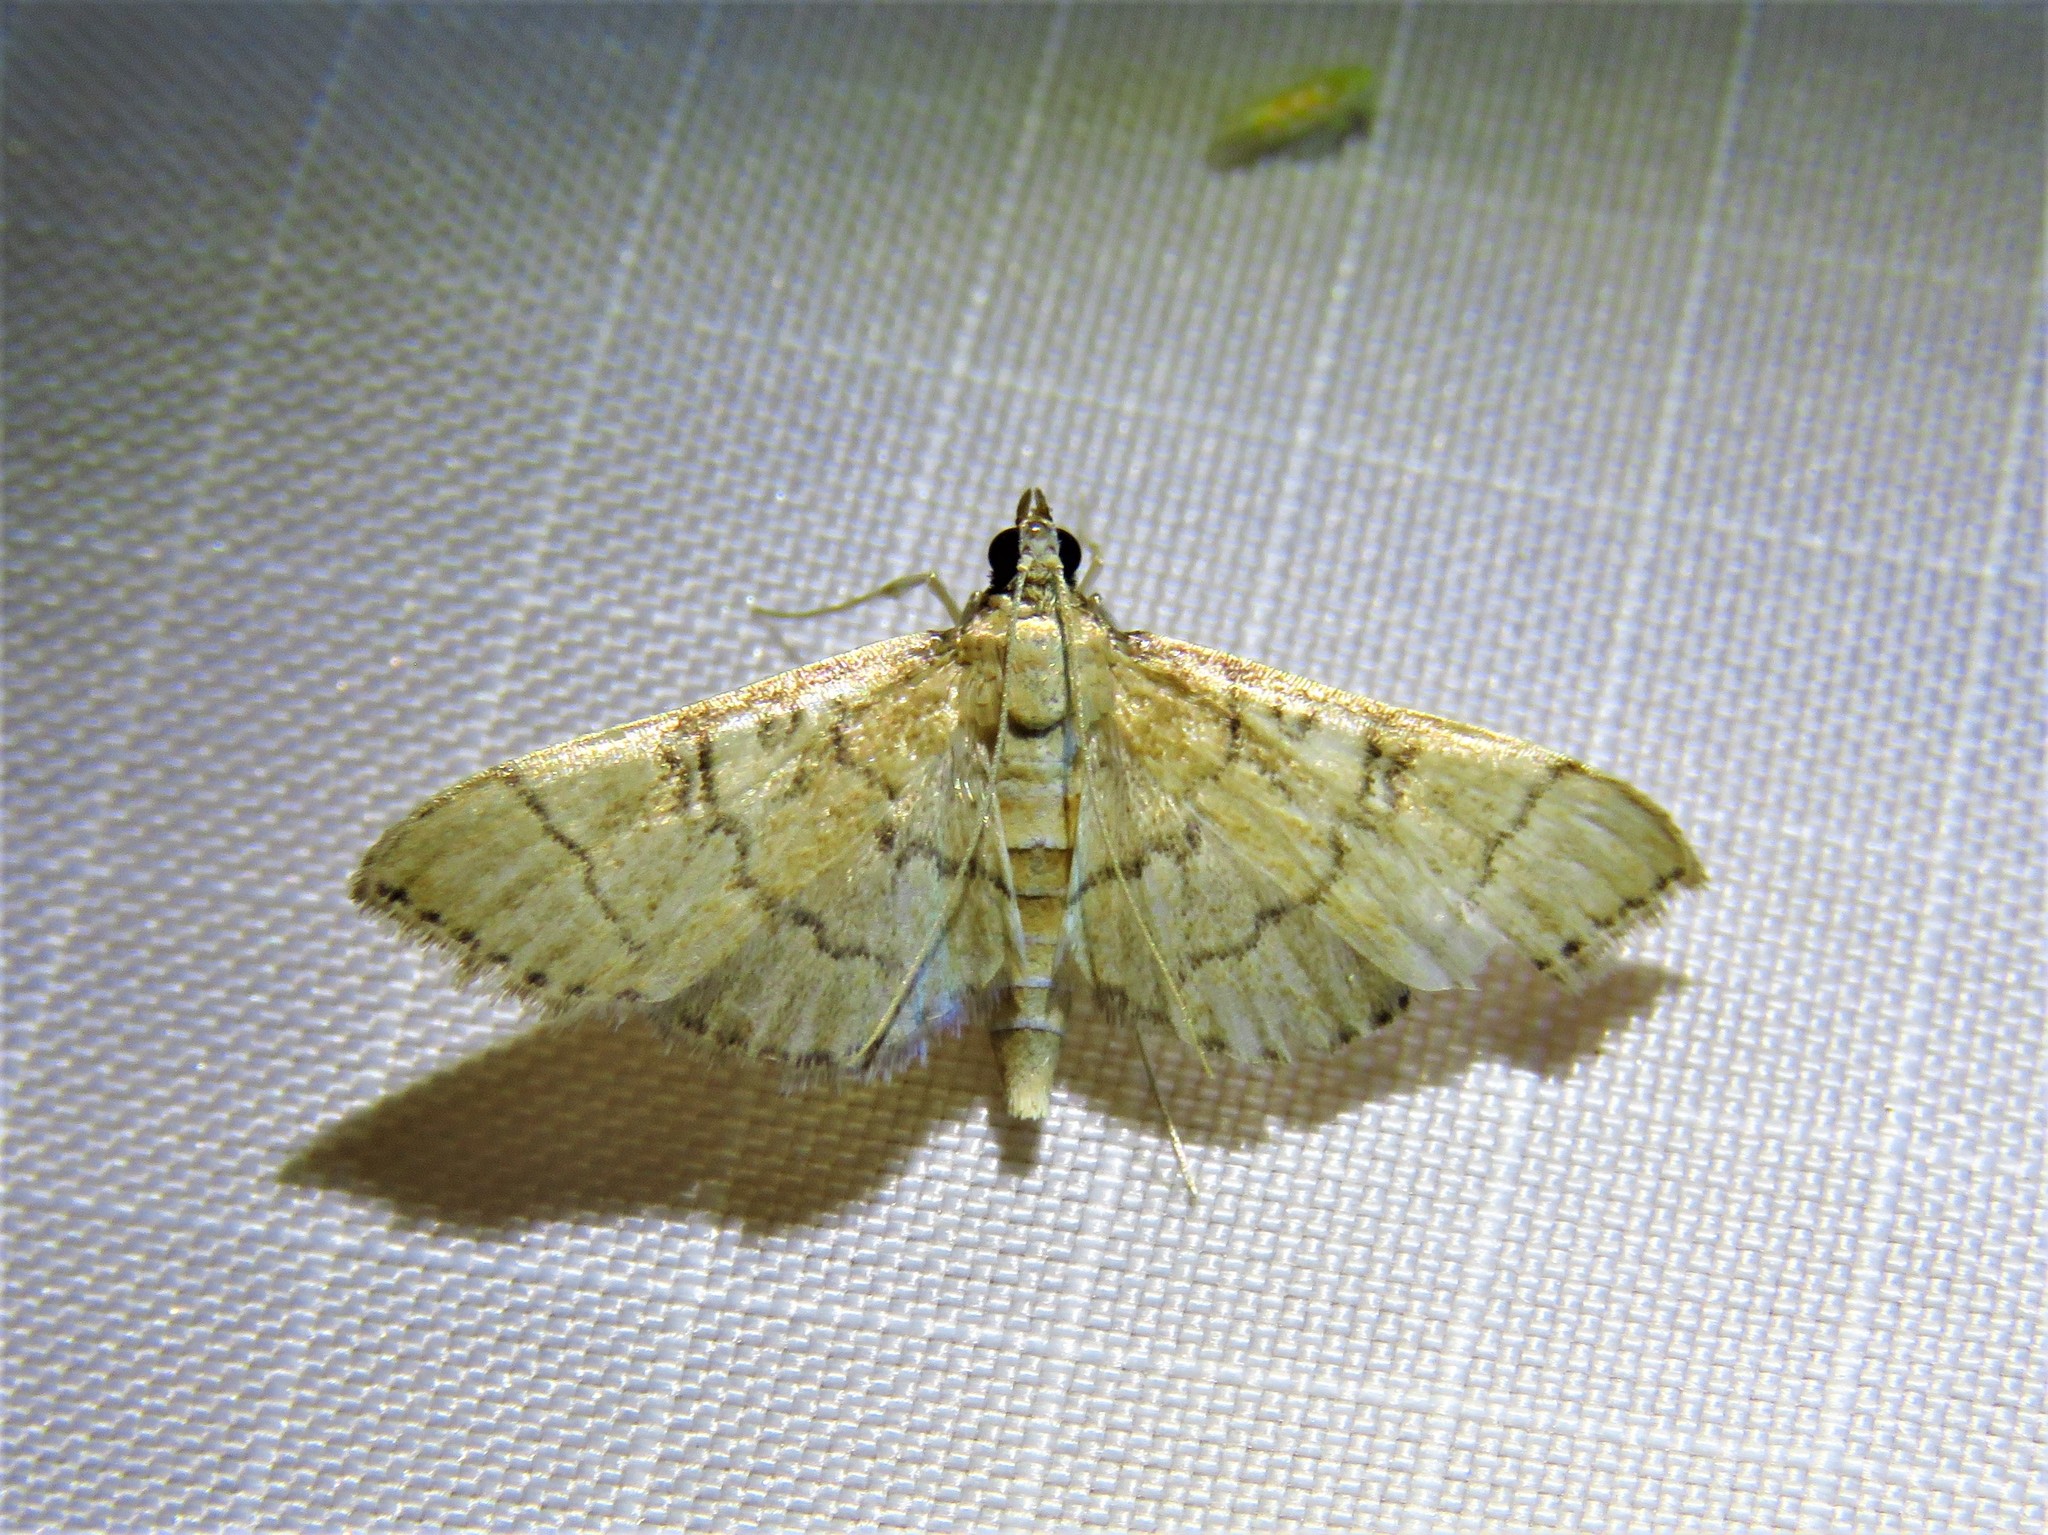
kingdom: Animalia
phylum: Arthropoda
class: Insecta
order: Lepidoptera
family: Crambidae
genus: Lamprosema
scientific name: Lamprosema Blepharomastix ranalis
